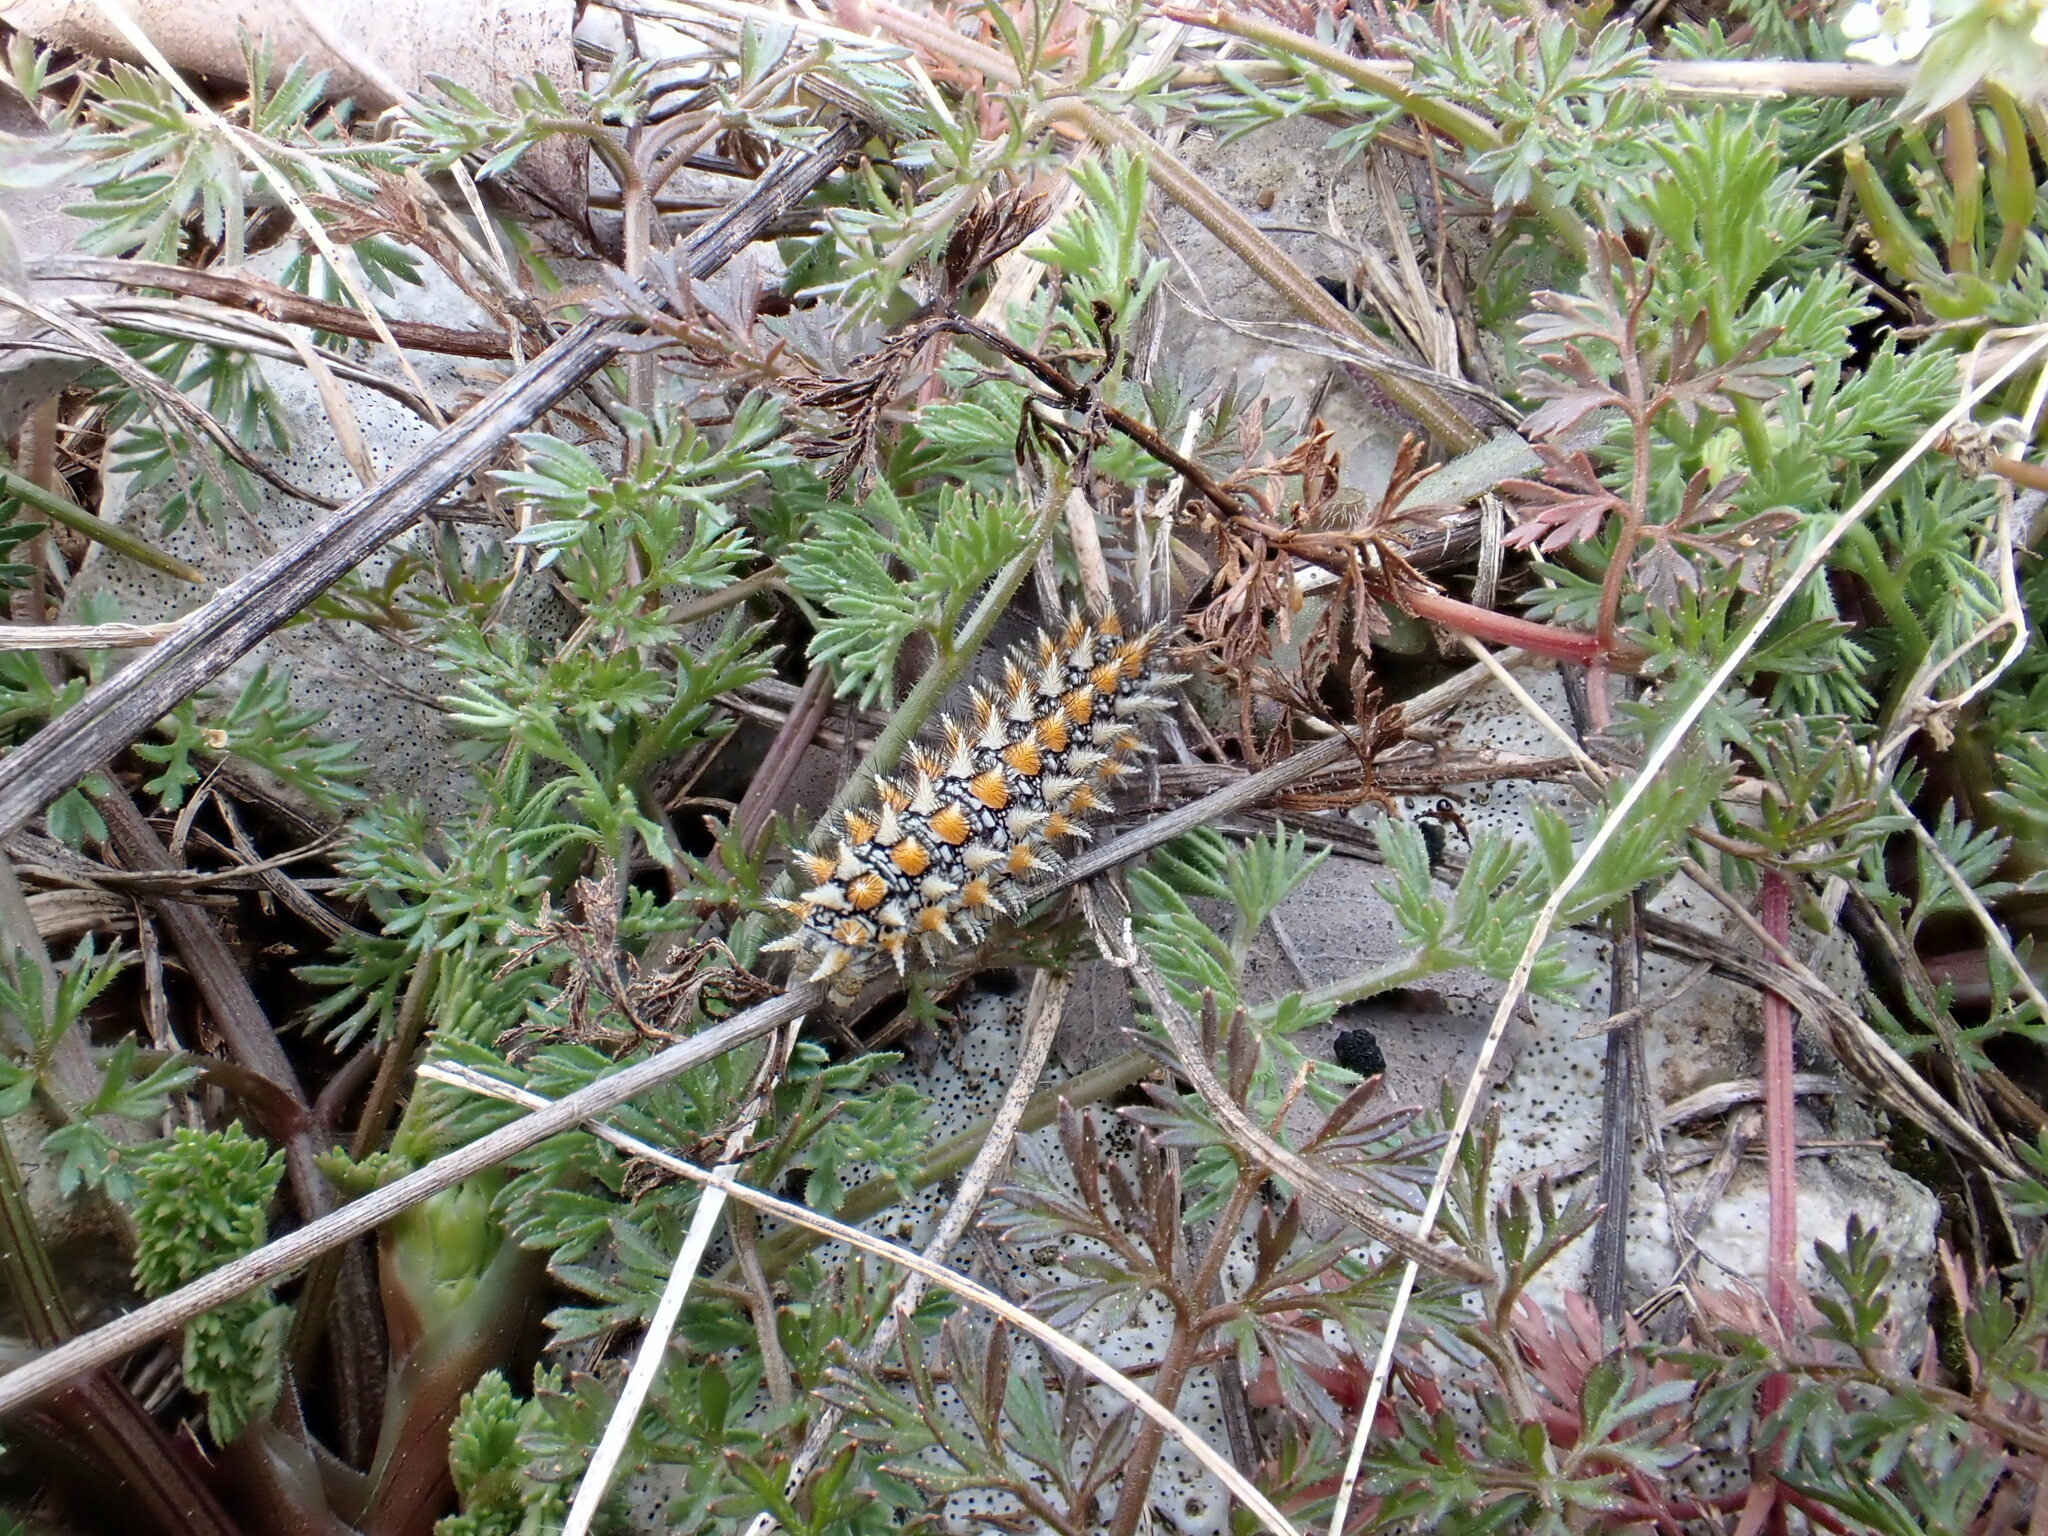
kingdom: Animalia
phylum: Arthropoda
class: Insecta
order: Lepidoptera
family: Nymphalidae
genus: Melitaea
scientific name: Melitaea didyma
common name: Spotted fritillary
